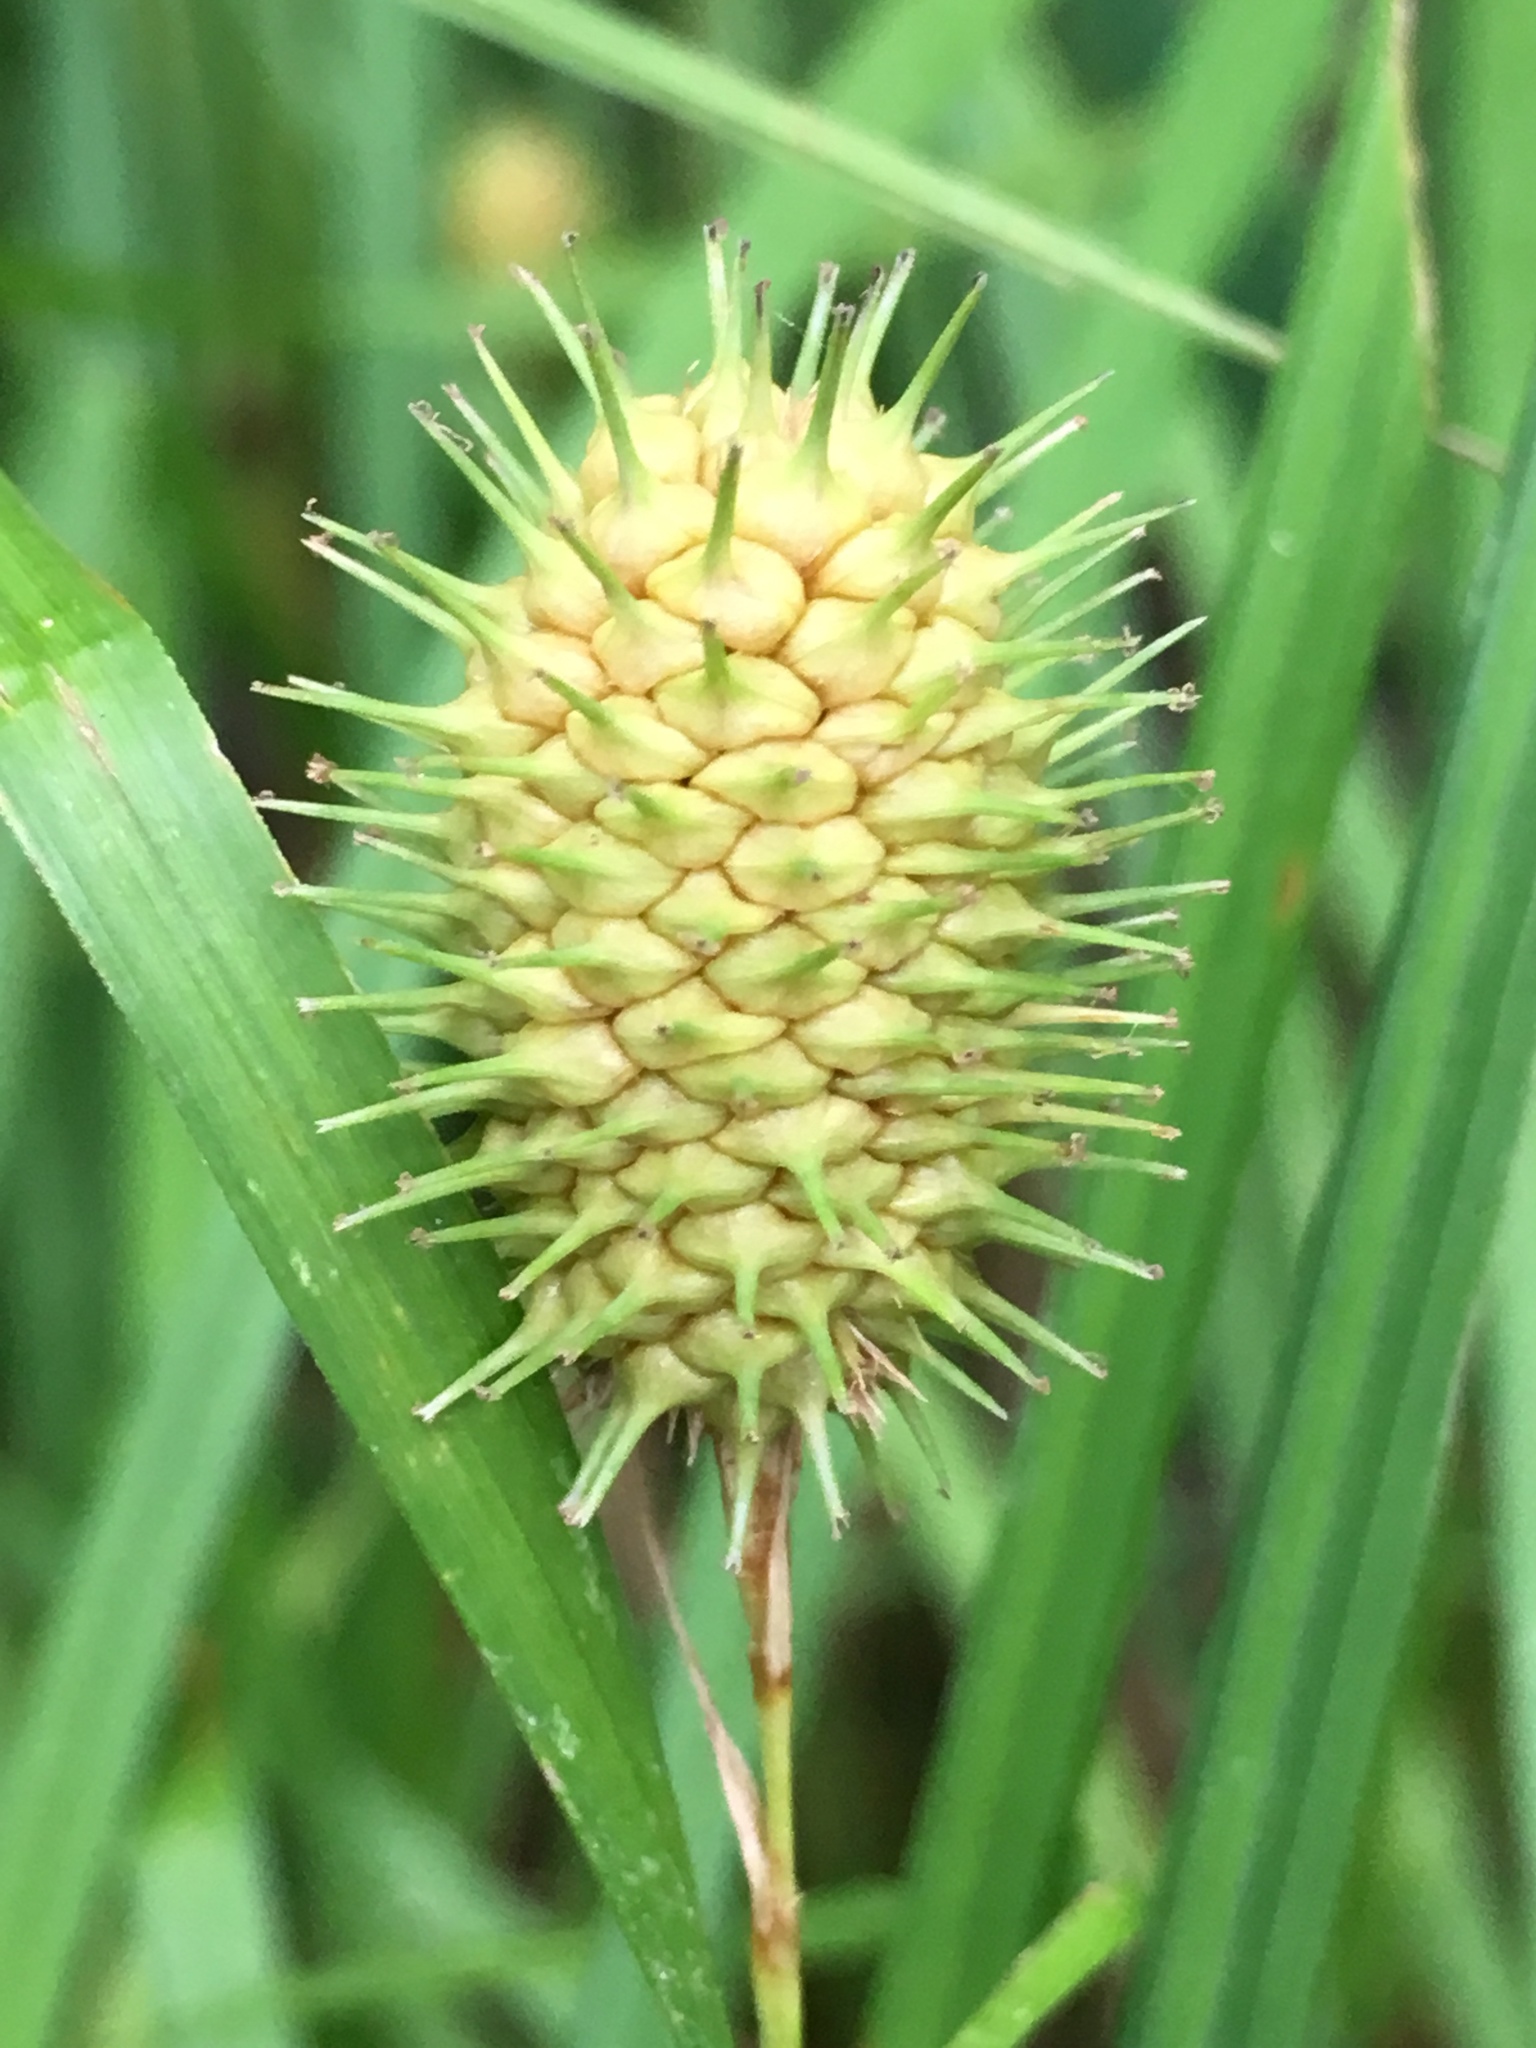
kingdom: Plantae
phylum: Tracheophyta
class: Liliopsida
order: Poales
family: Cyperaceae
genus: Carex
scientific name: Carex squarrosa
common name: Narrow-leaved cattail sedge
